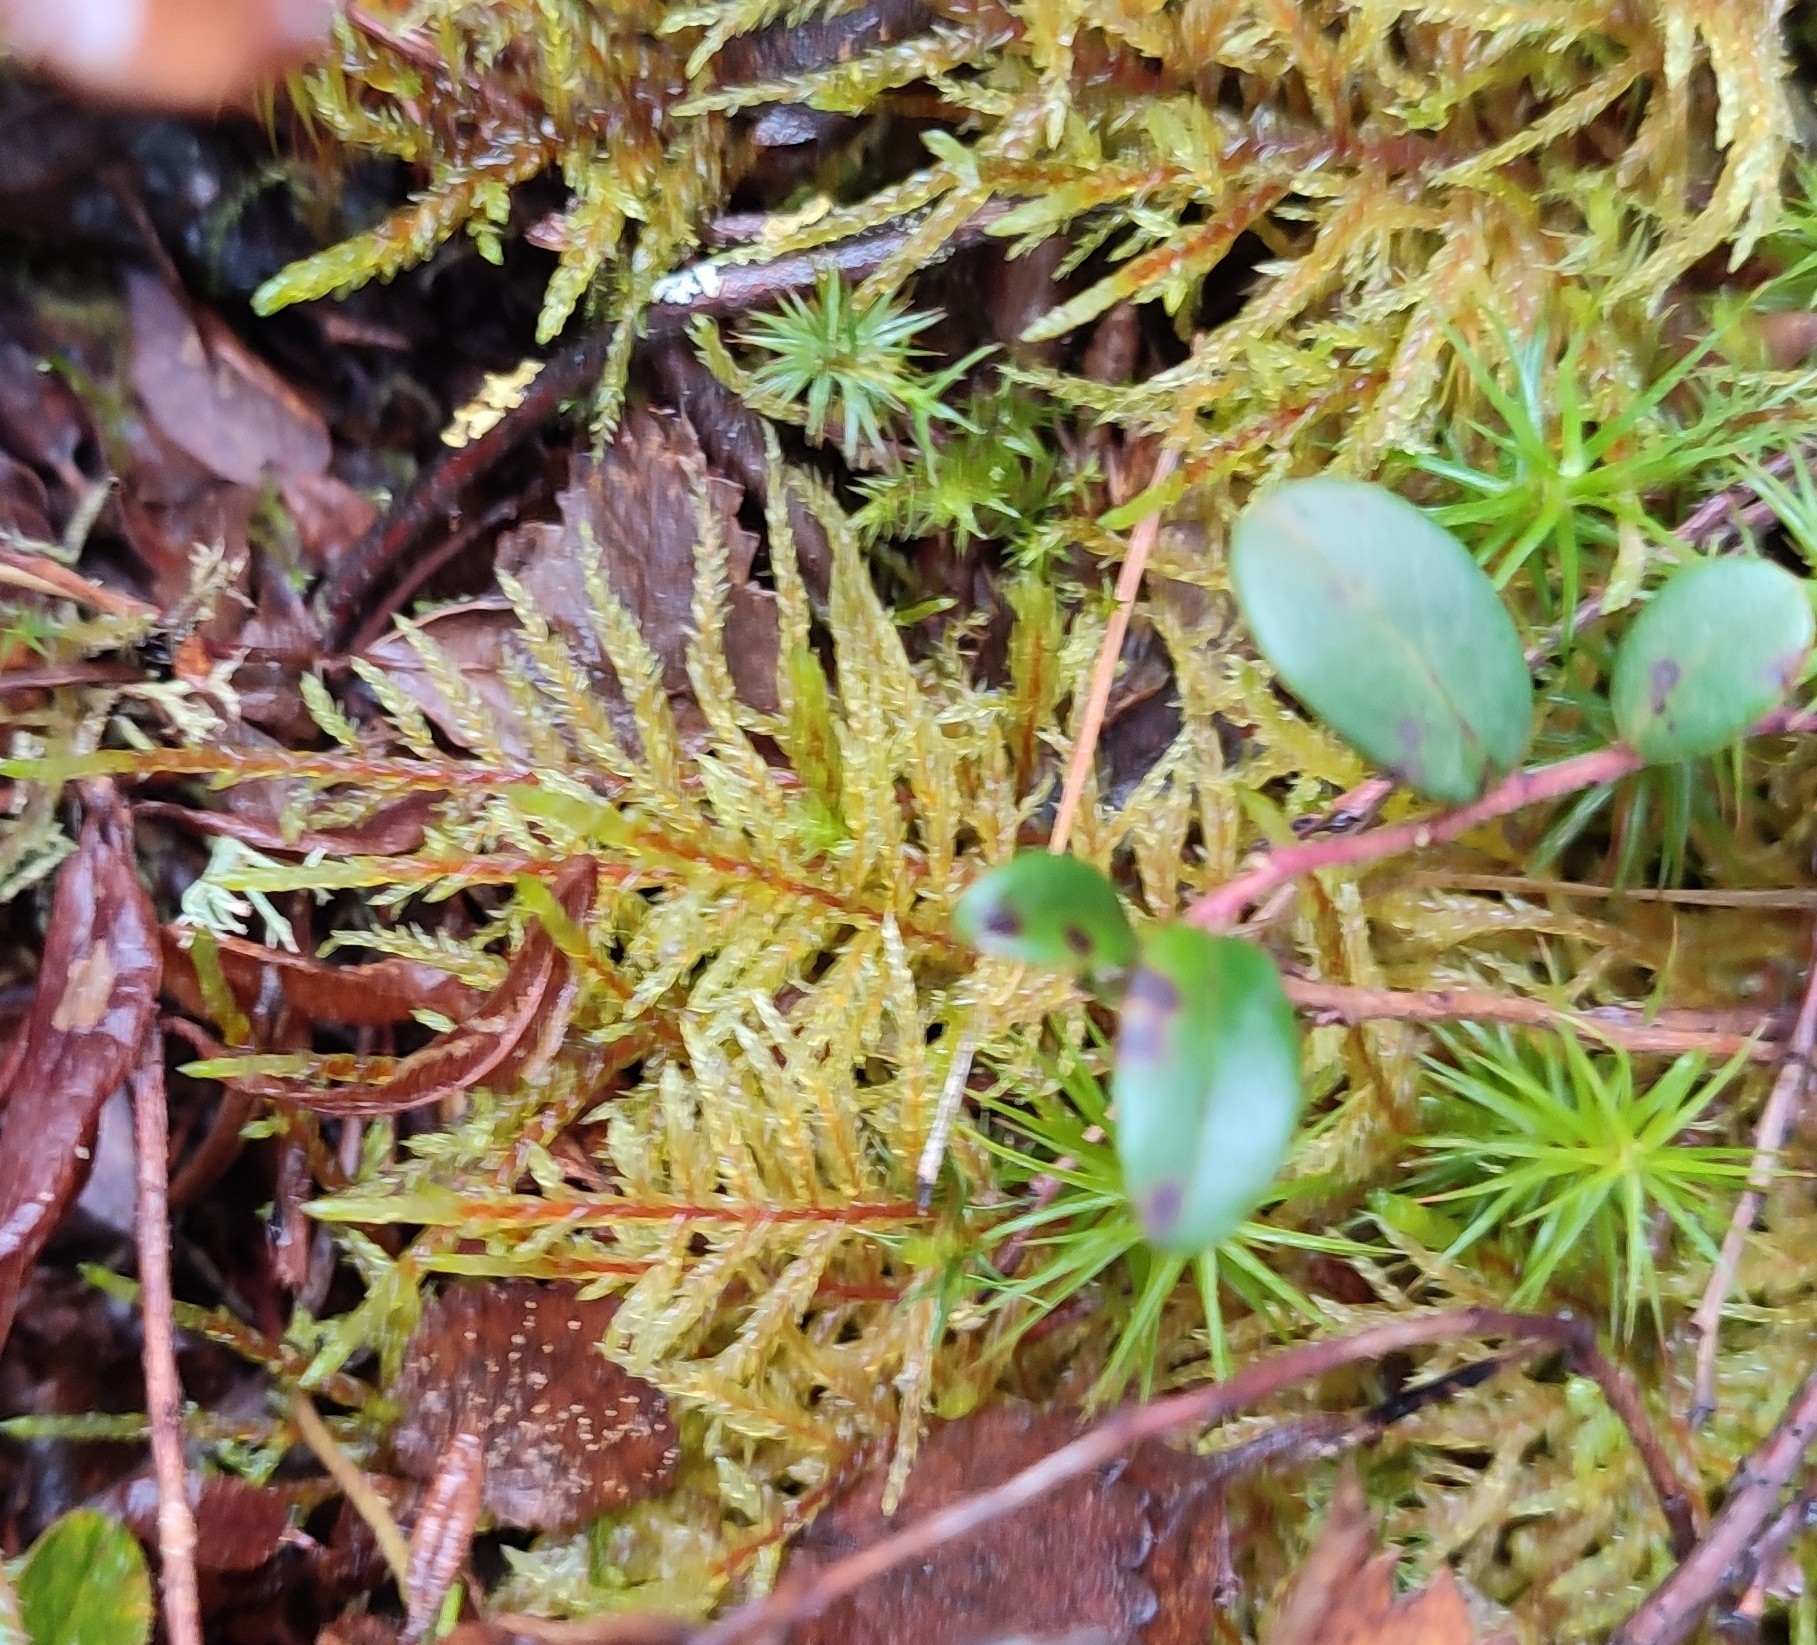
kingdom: Plantae
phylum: Bryophyta
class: Bryopsida
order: Hypnales
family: Hylocomiaceae
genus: Pleurozium
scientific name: Pleurozium schreberi
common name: Red-stemmed feather moss
